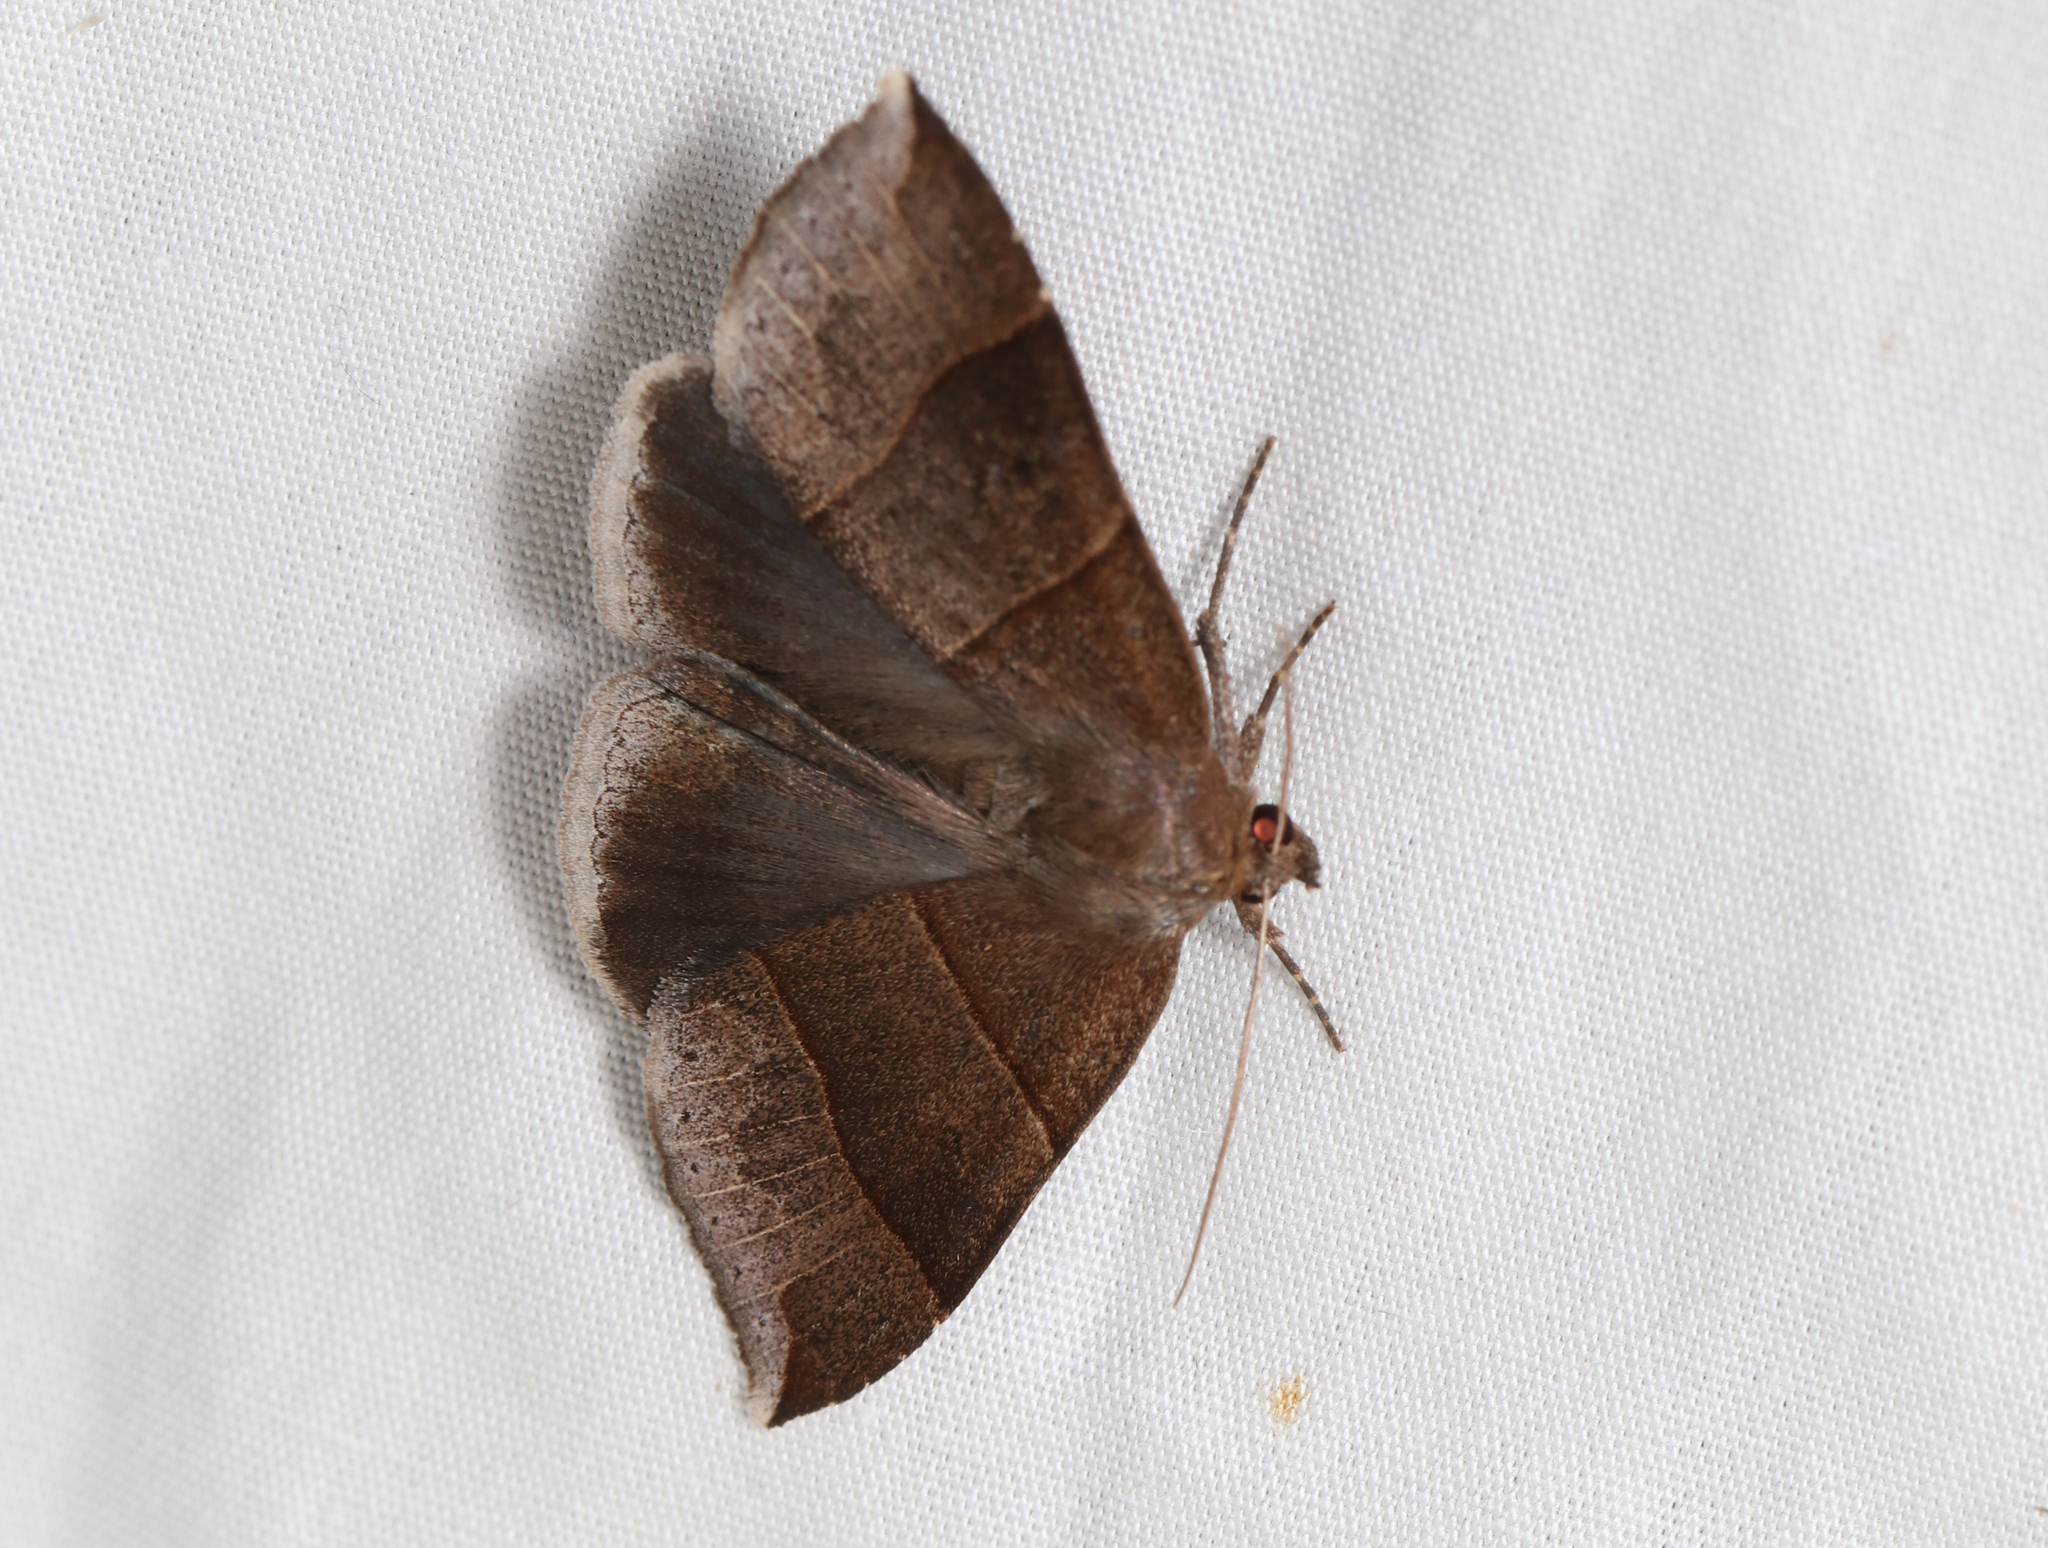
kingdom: Animalia
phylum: Arthropoda
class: Insecta
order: Lepidoptera
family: Erebidae
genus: Parallelia
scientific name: Parallelia bistriaris
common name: Maple looper moth
